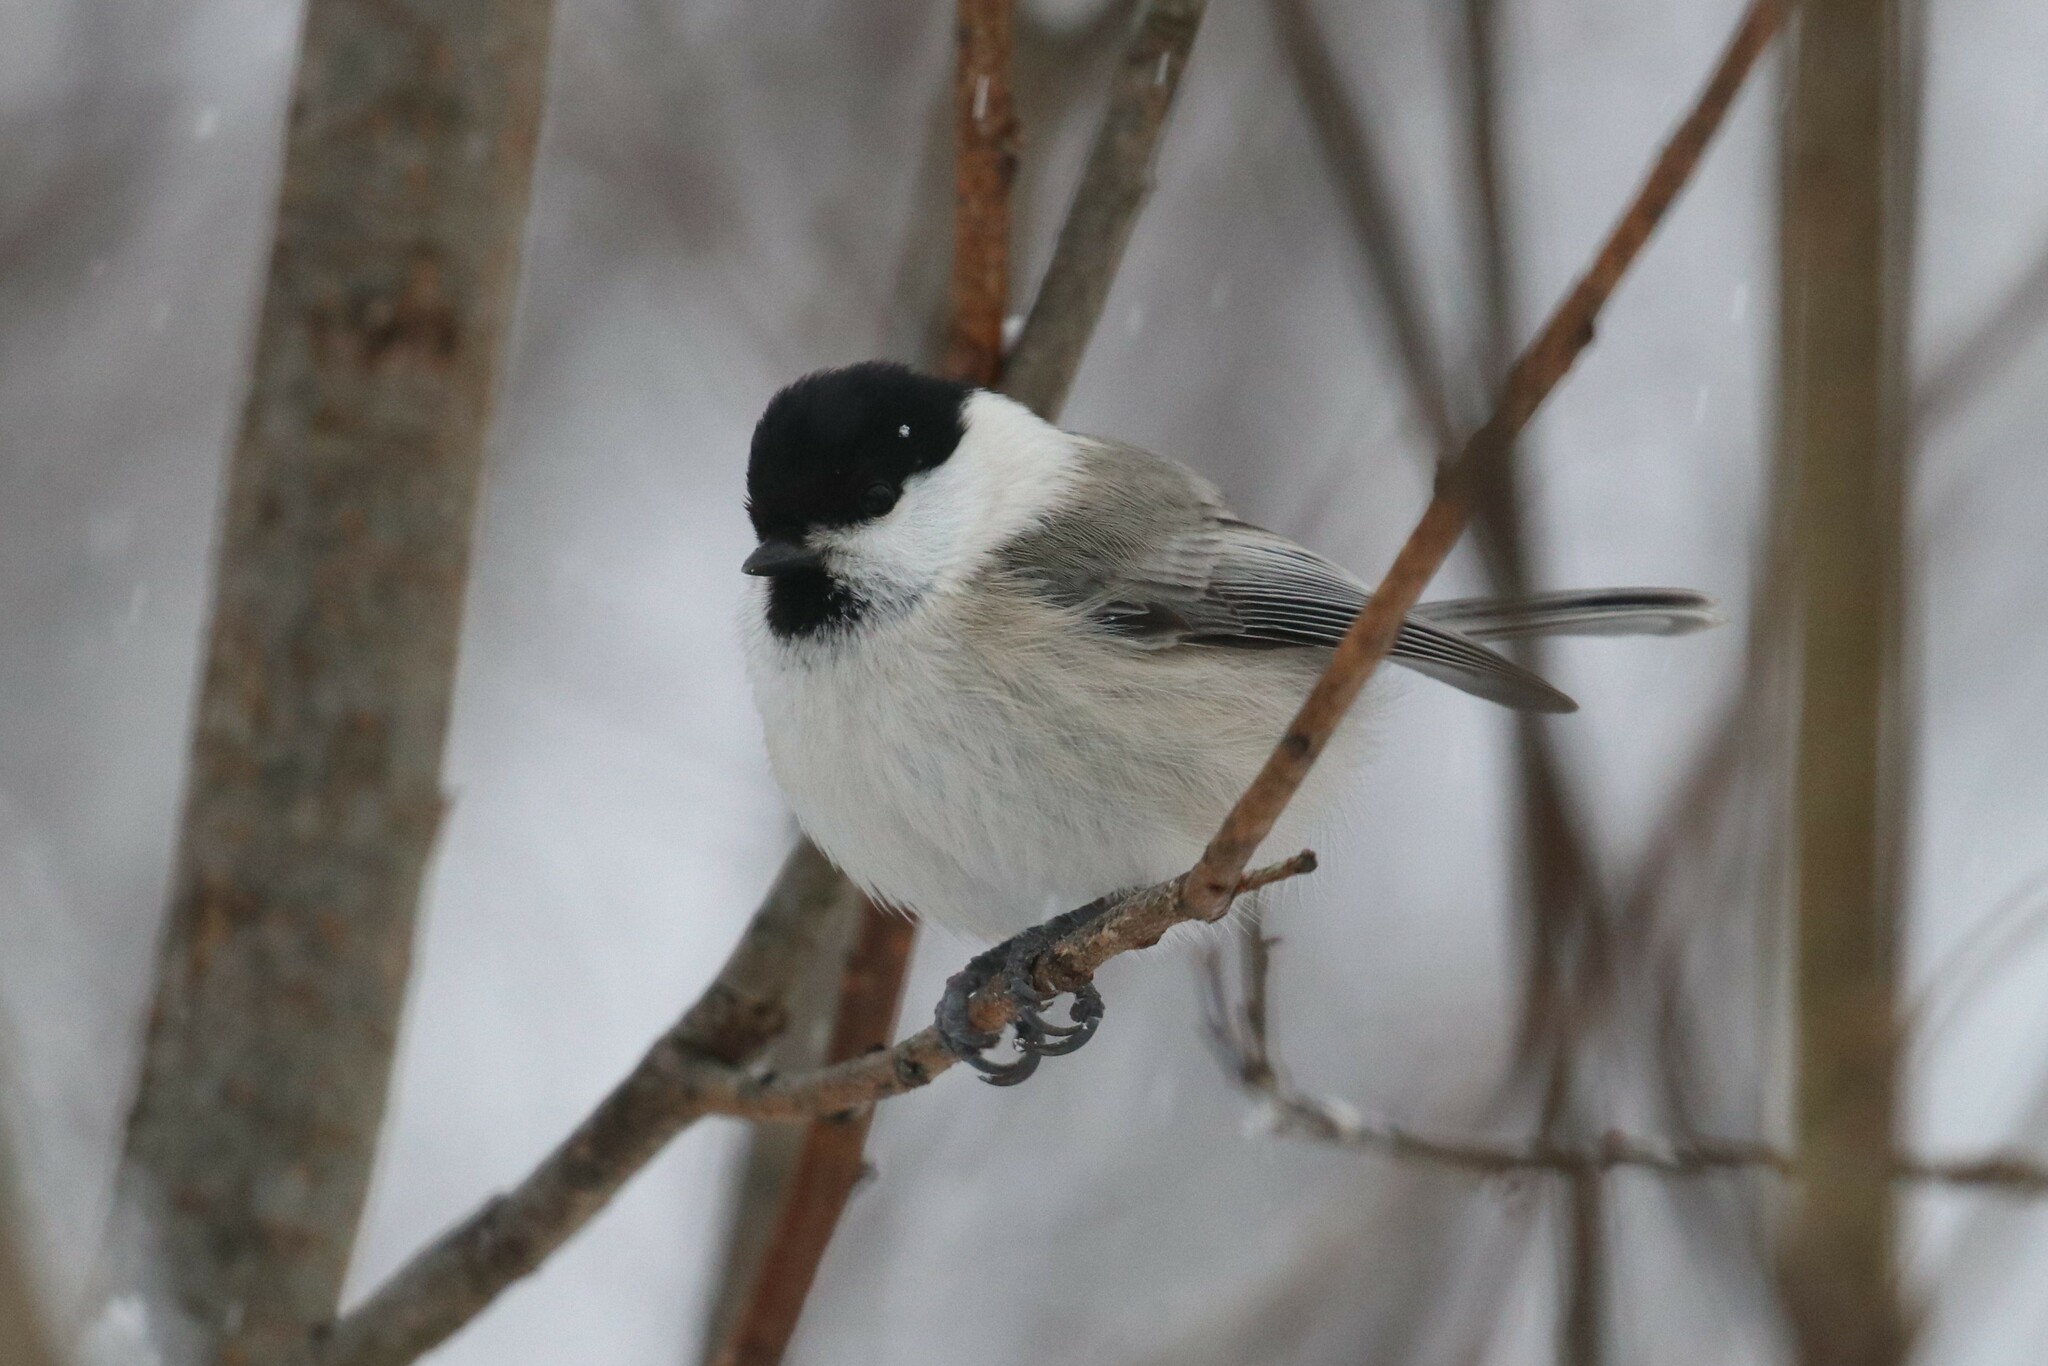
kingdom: Animalia
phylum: Chordata
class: Aves
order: Passeriformes
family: Paridae
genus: Poecile
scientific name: Poecile montanus
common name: Willow tit
